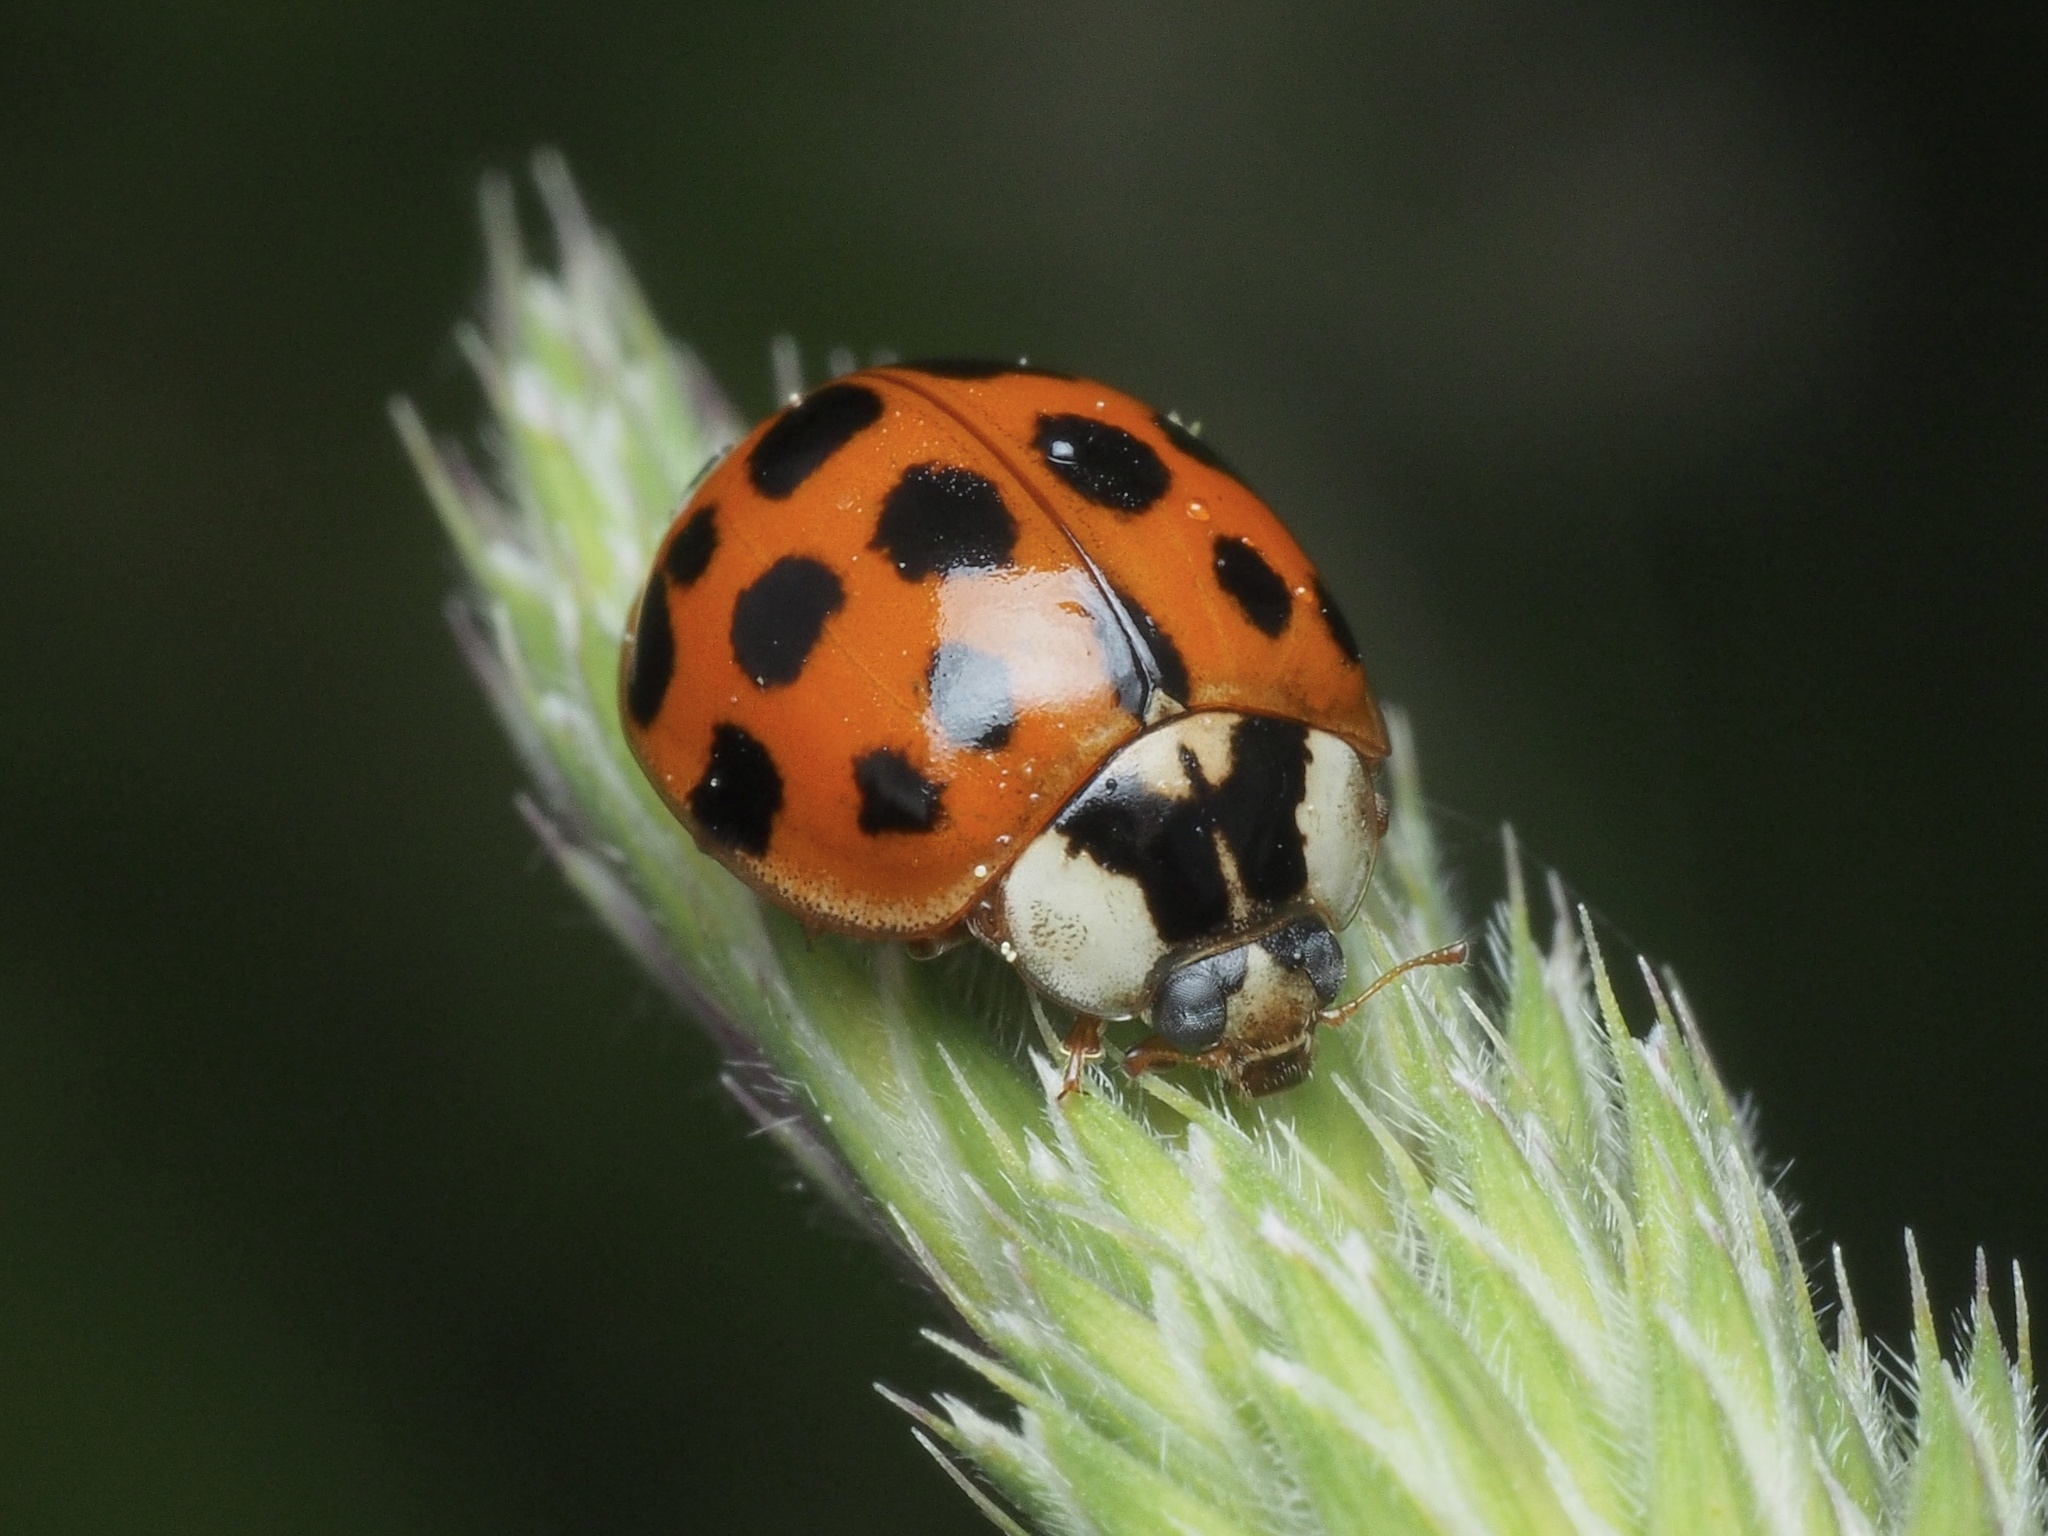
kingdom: Animalia
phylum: Arthropoda
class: Insecta
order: Coleoptera
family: Coccinellidae
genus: Harmonia
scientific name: Harmonia axyridis
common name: Harlequin ladybird
